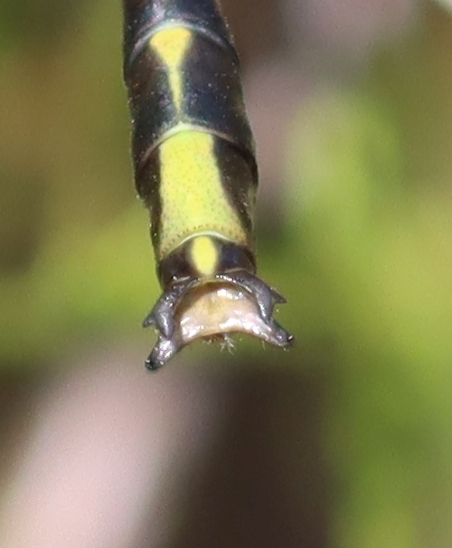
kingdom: Animalia
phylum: Arthropoda
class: Insecta
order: Odonata
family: Gomphidae
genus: Phanogomphus
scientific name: Phanogomphus graslinellus
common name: Pronghorn clubtail
